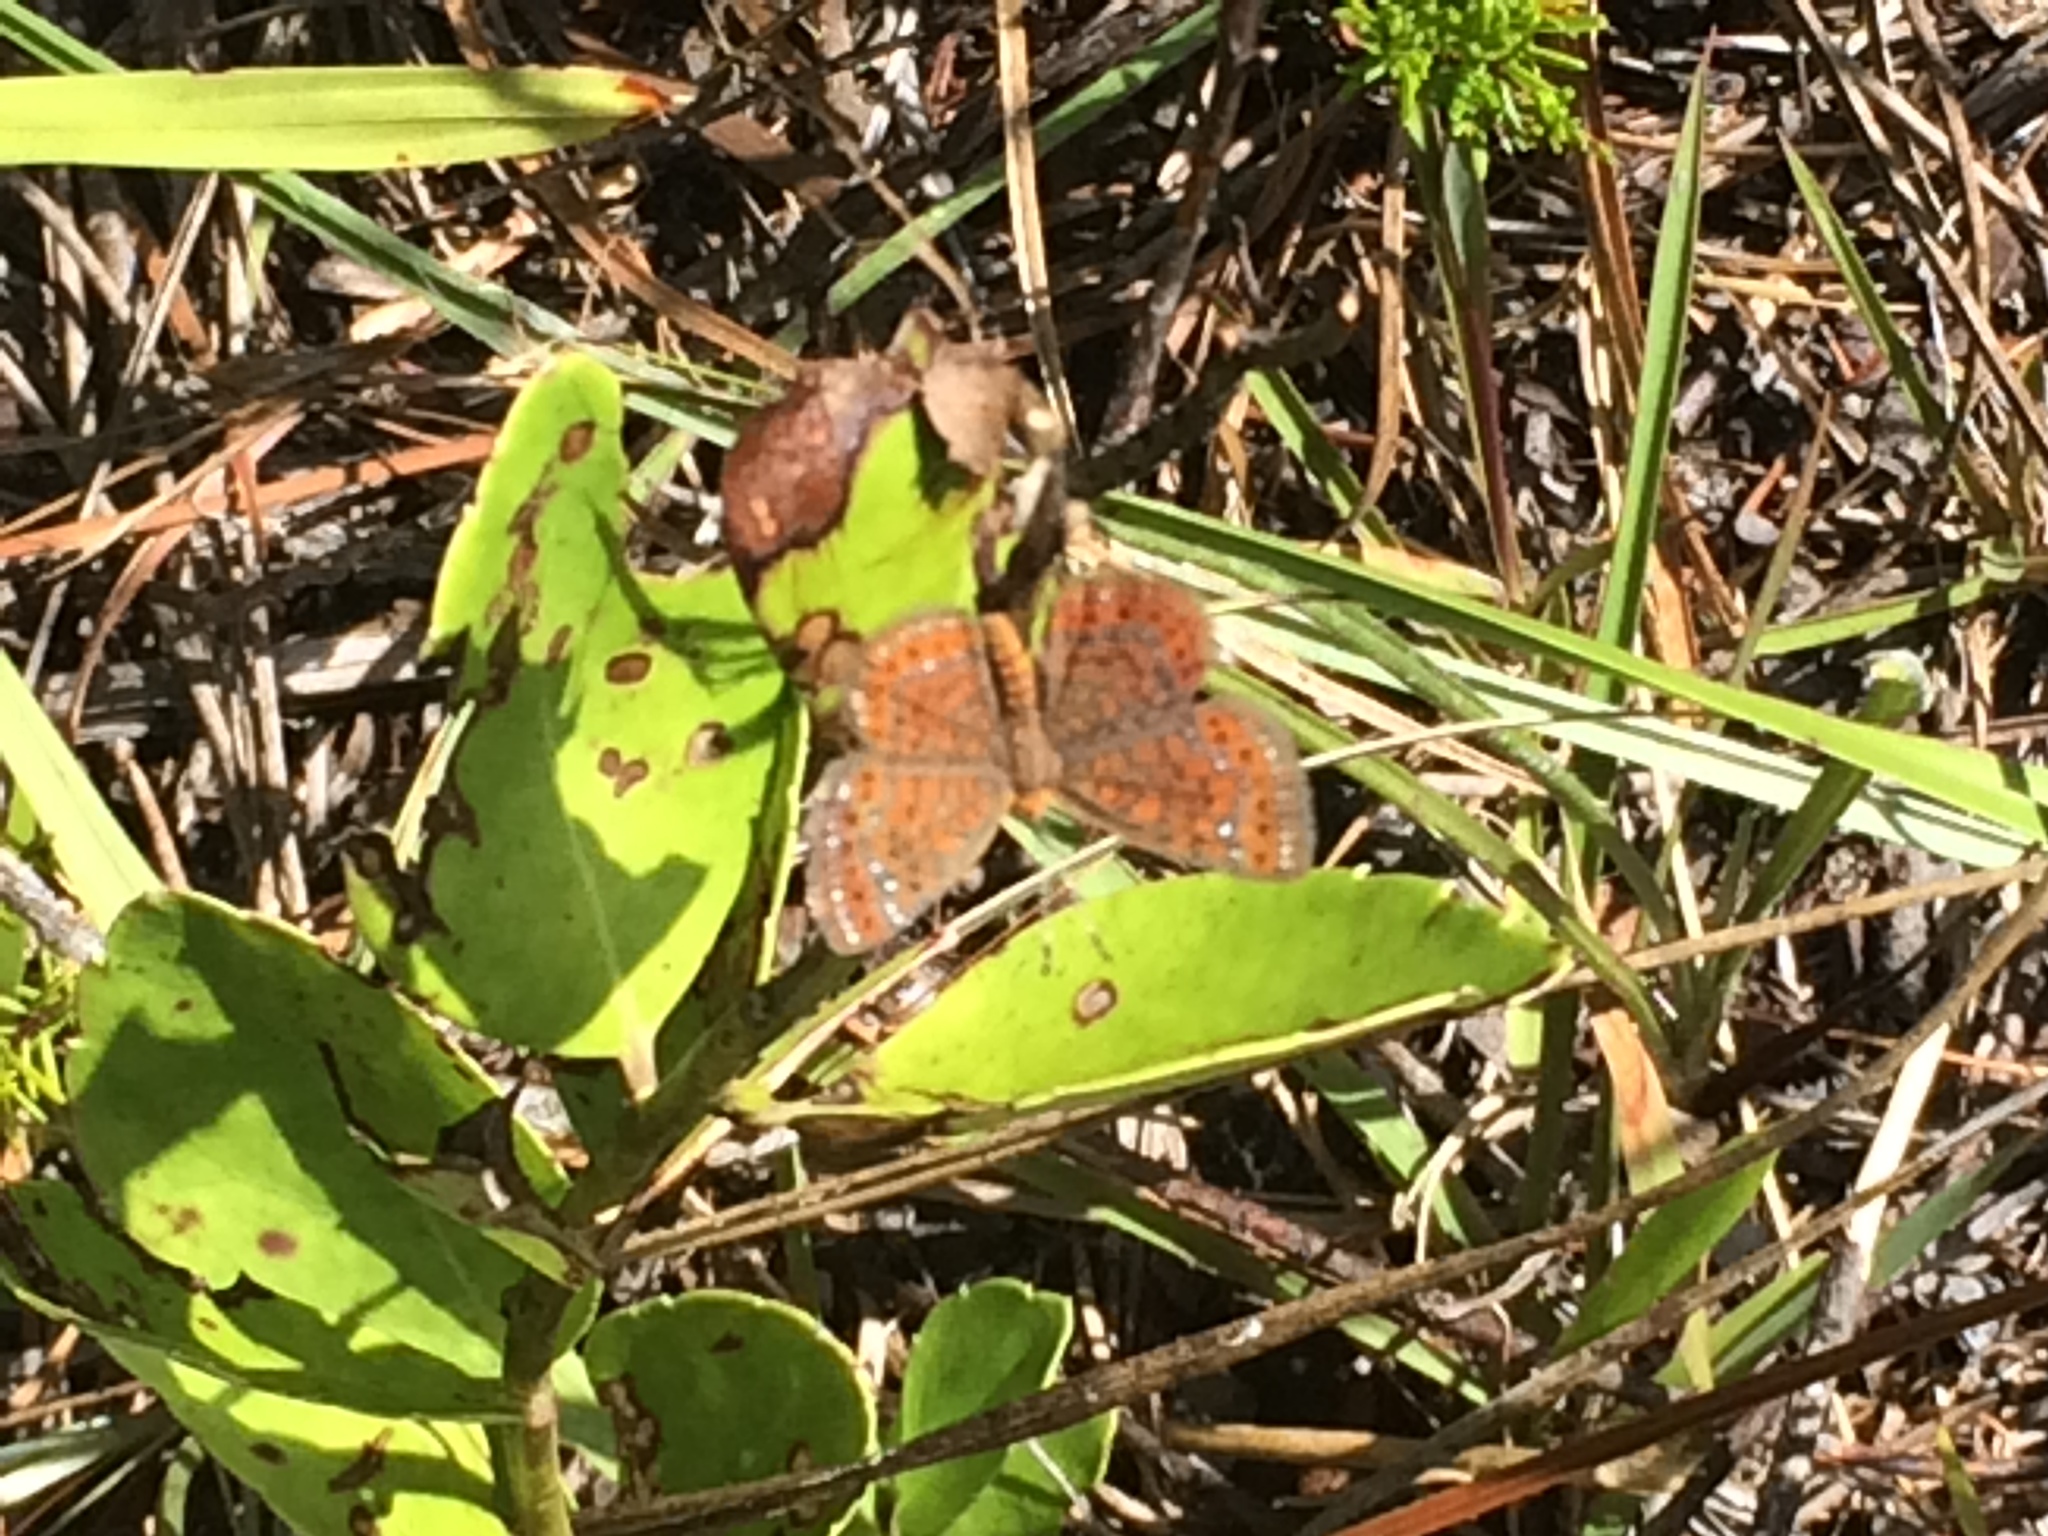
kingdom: Animalia
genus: Calephelis
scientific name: Calephelis virginiensis
